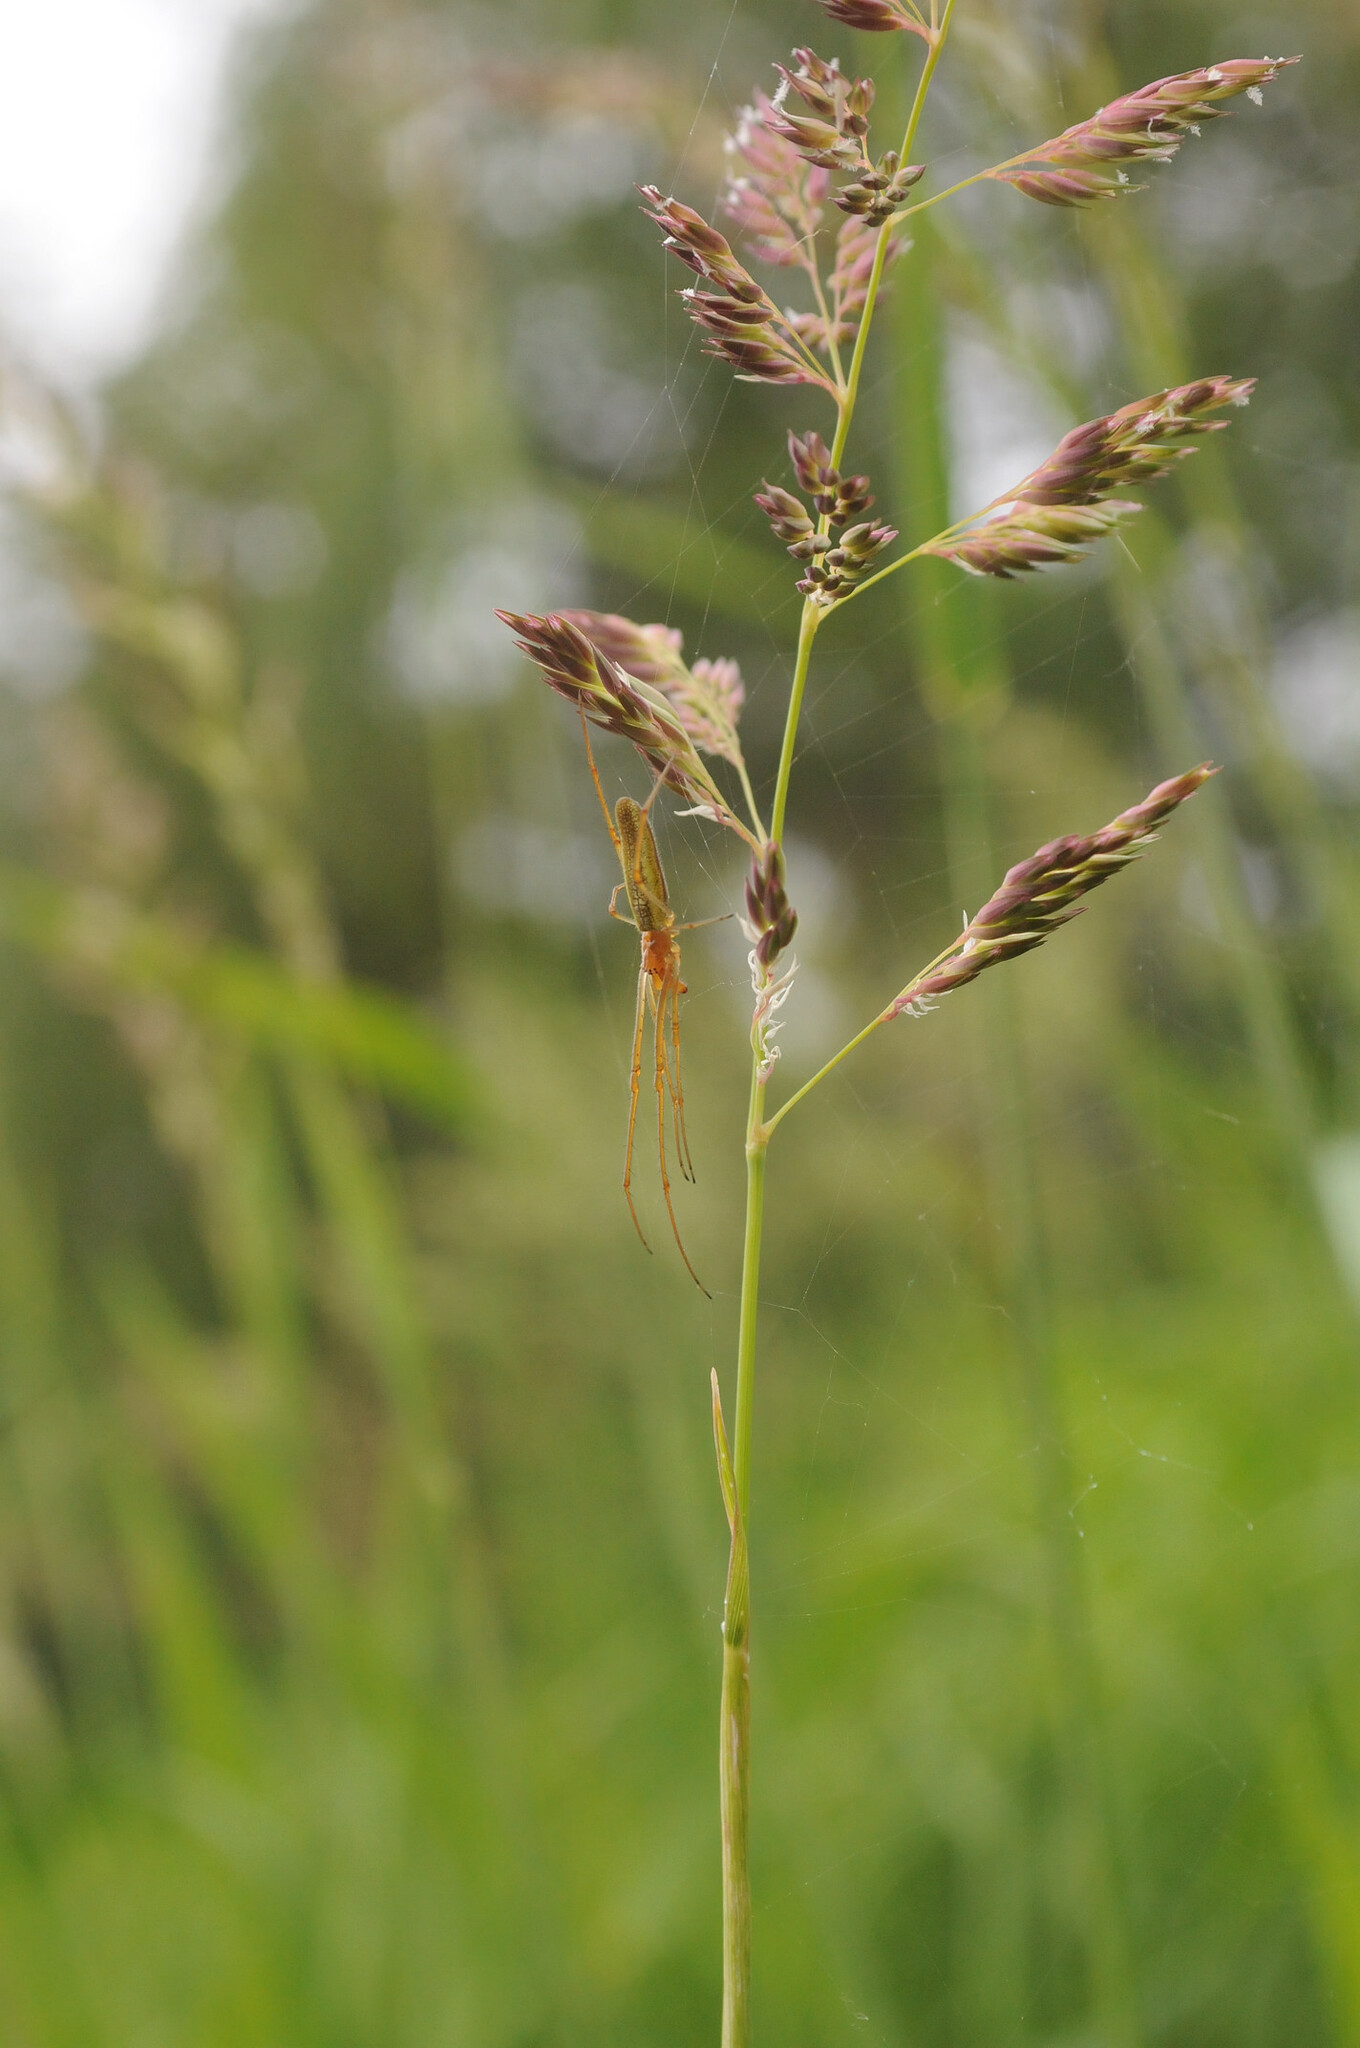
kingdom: Plantae
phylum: Tracheophyta
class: Liliopsida
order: Poales
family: Poaceae
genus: Phalaris
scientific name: Phalaris arundinacea
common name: Reed canary-grass
